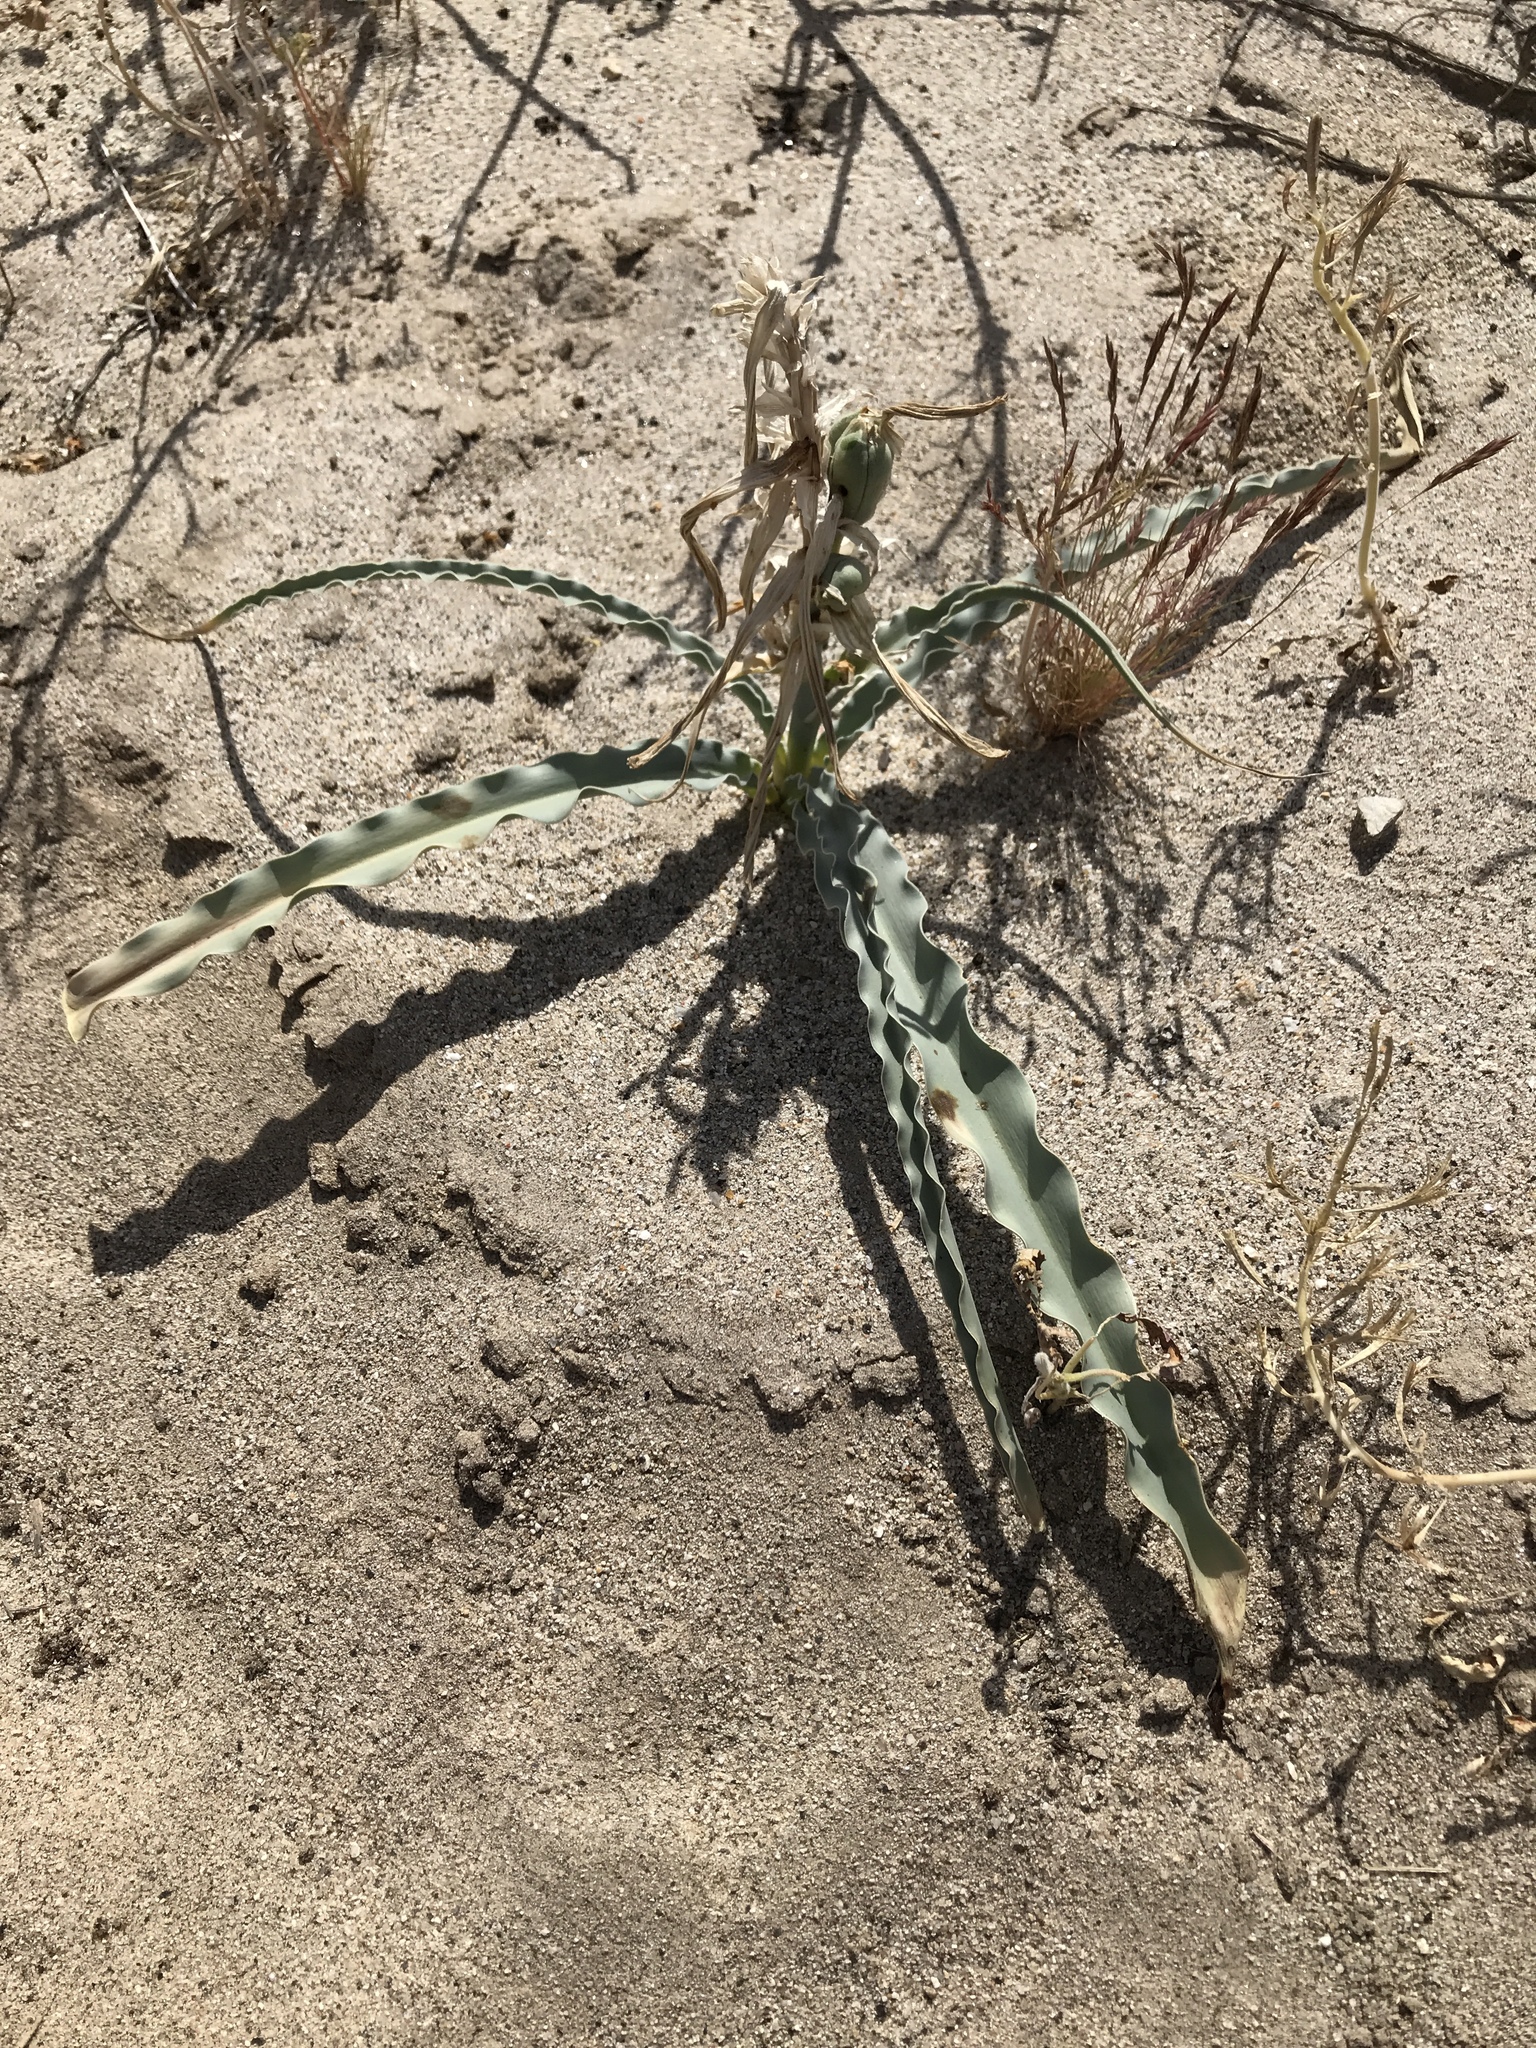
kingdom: Plantae
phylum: Tracheophyta
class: Liliopsida
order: Asparagales
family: Asparagaceae
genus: Hesperocallis
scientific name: Hesperocallis undulata
